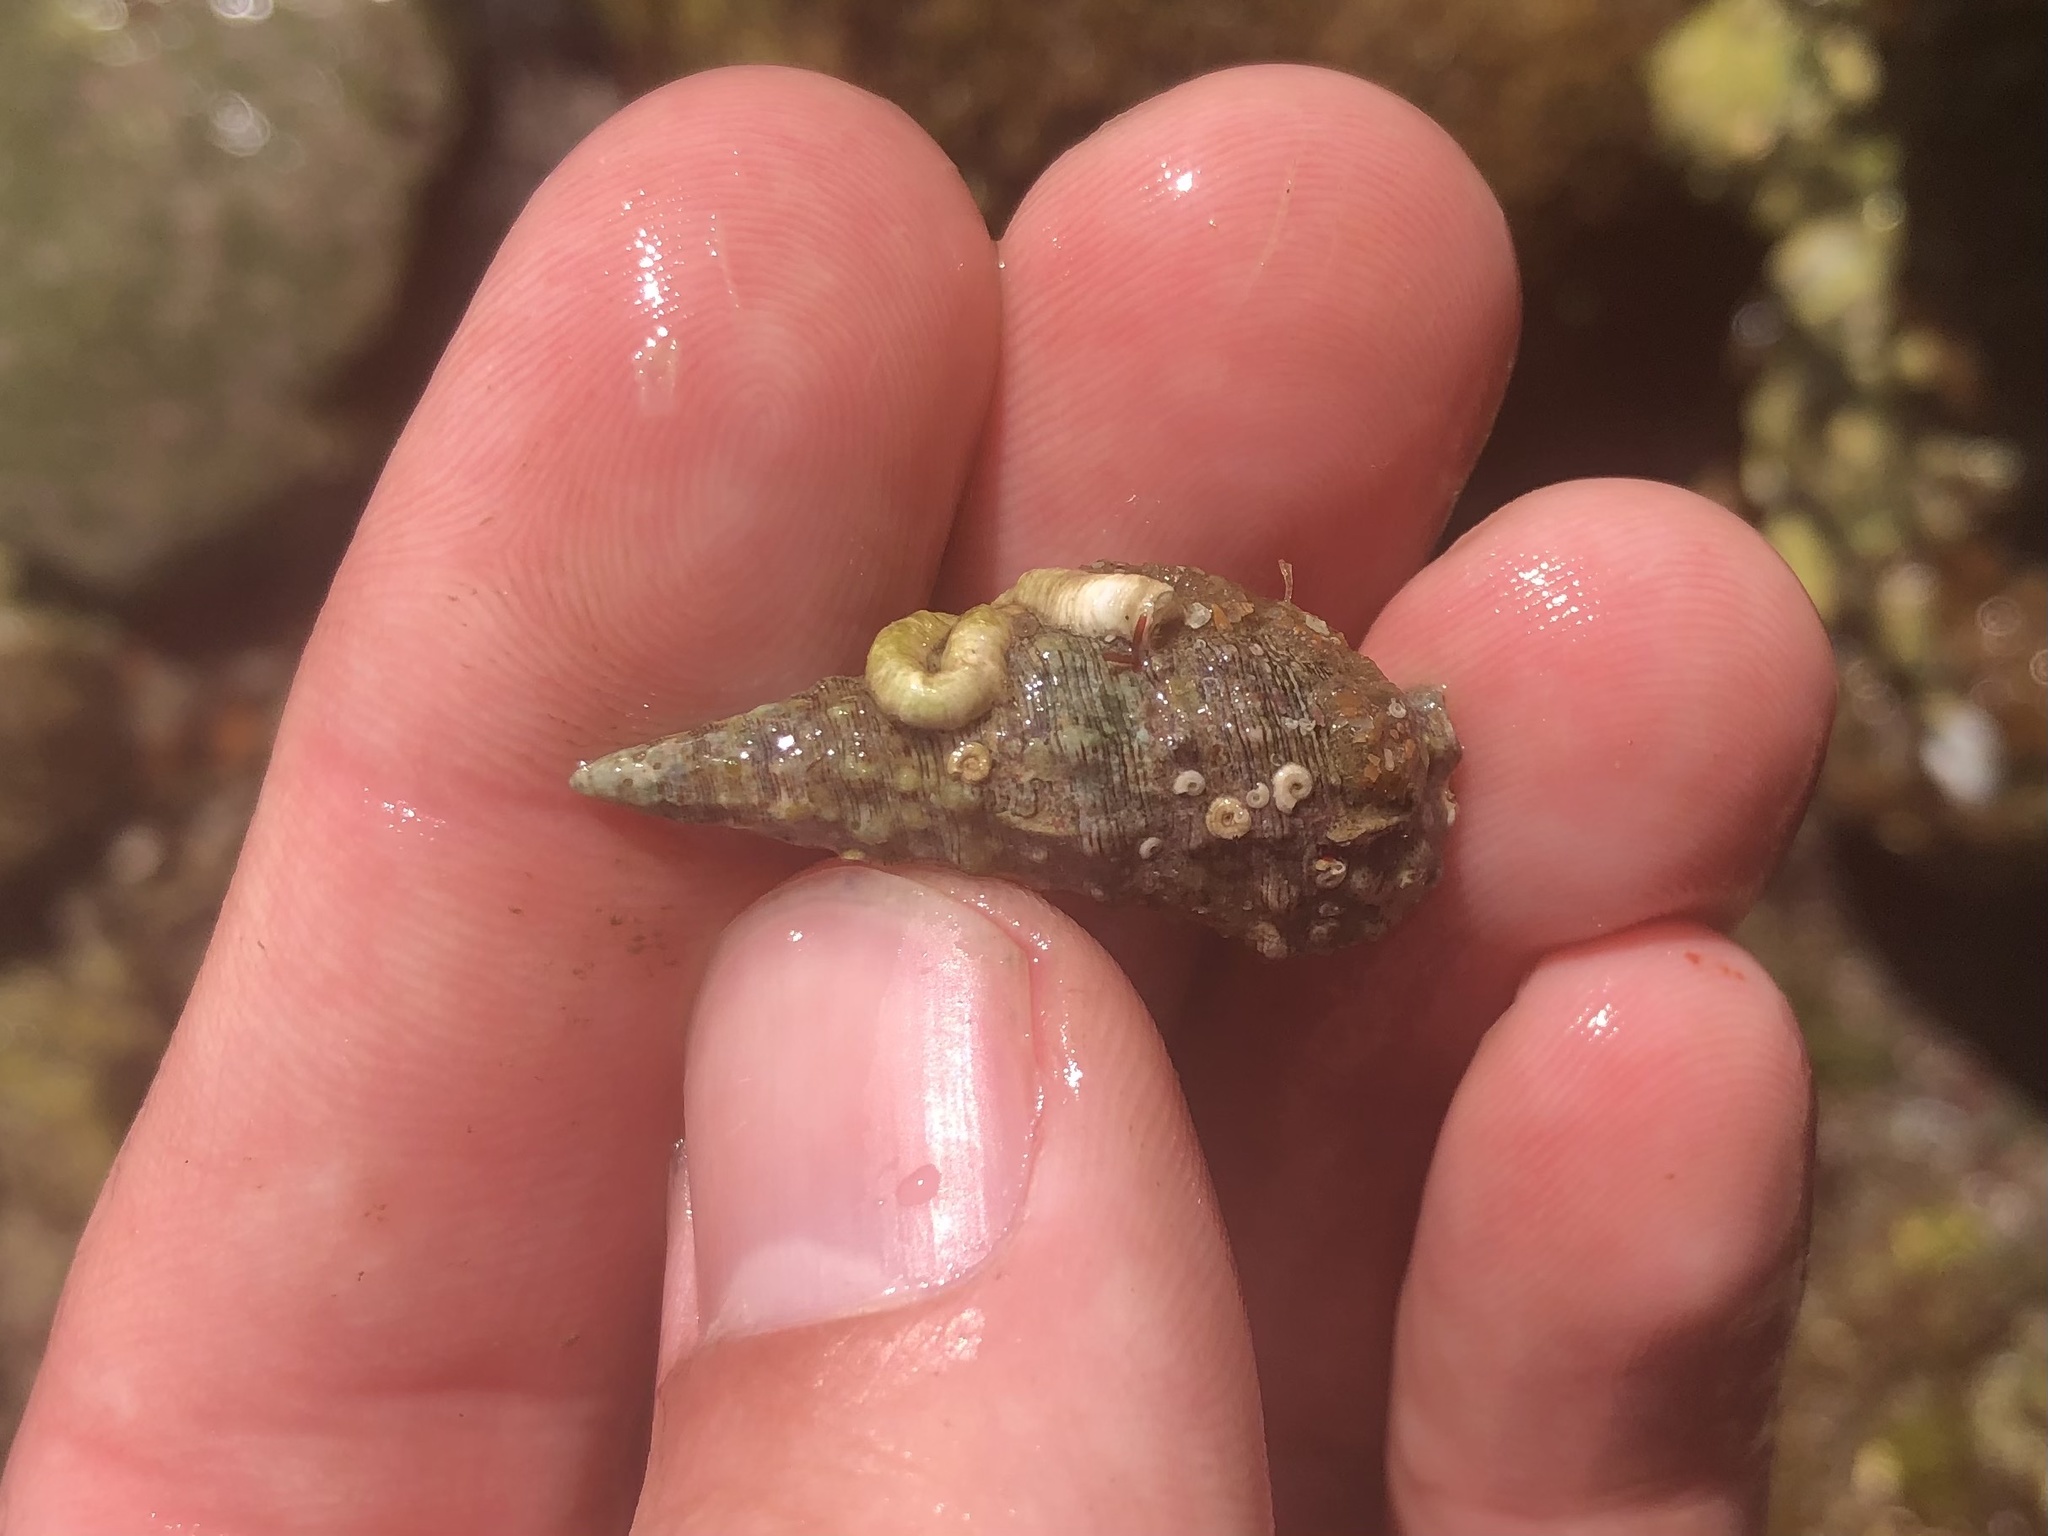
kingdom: Animalia
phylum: Mollusca
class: Gastropoda
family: Cerithiidae
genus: Cerithium
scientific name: Cerithium atratum
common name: Dark cerith
